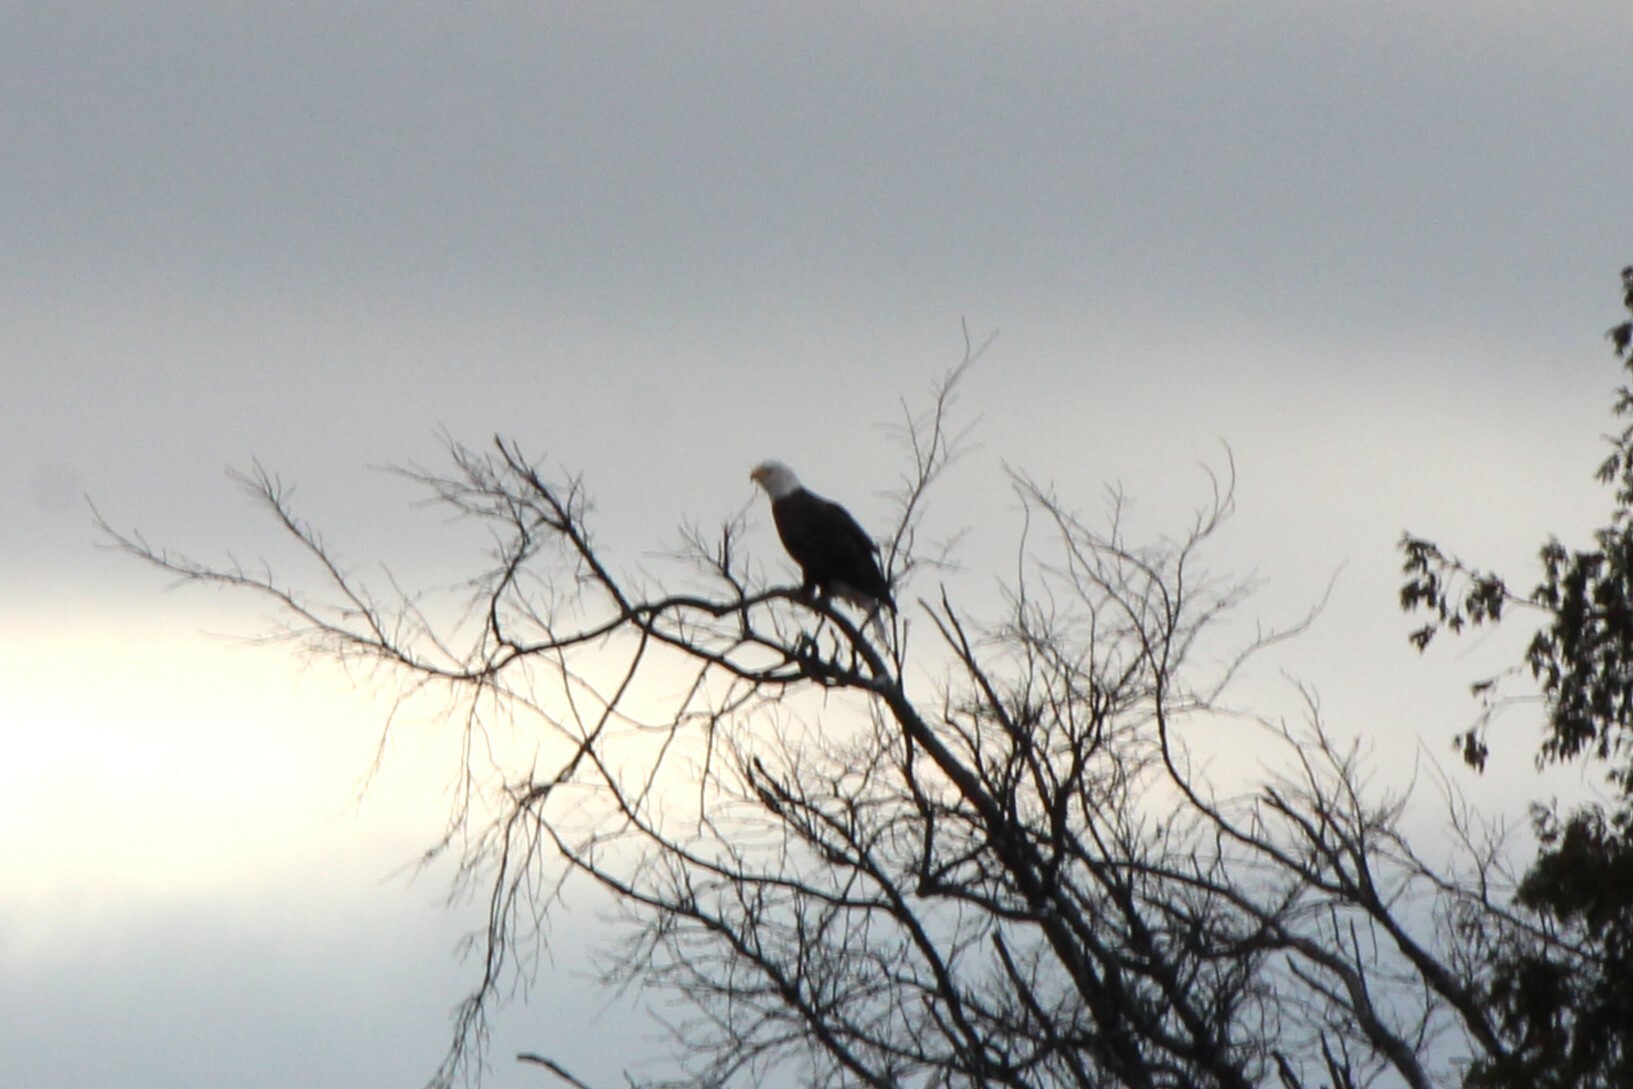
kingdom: Animalia
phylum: Chordata
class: Aves
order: Accipitriformes
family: Accipitridae
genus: Haliaeetus
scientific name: Haliaeetus leucocephalus
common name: Bald eagle
